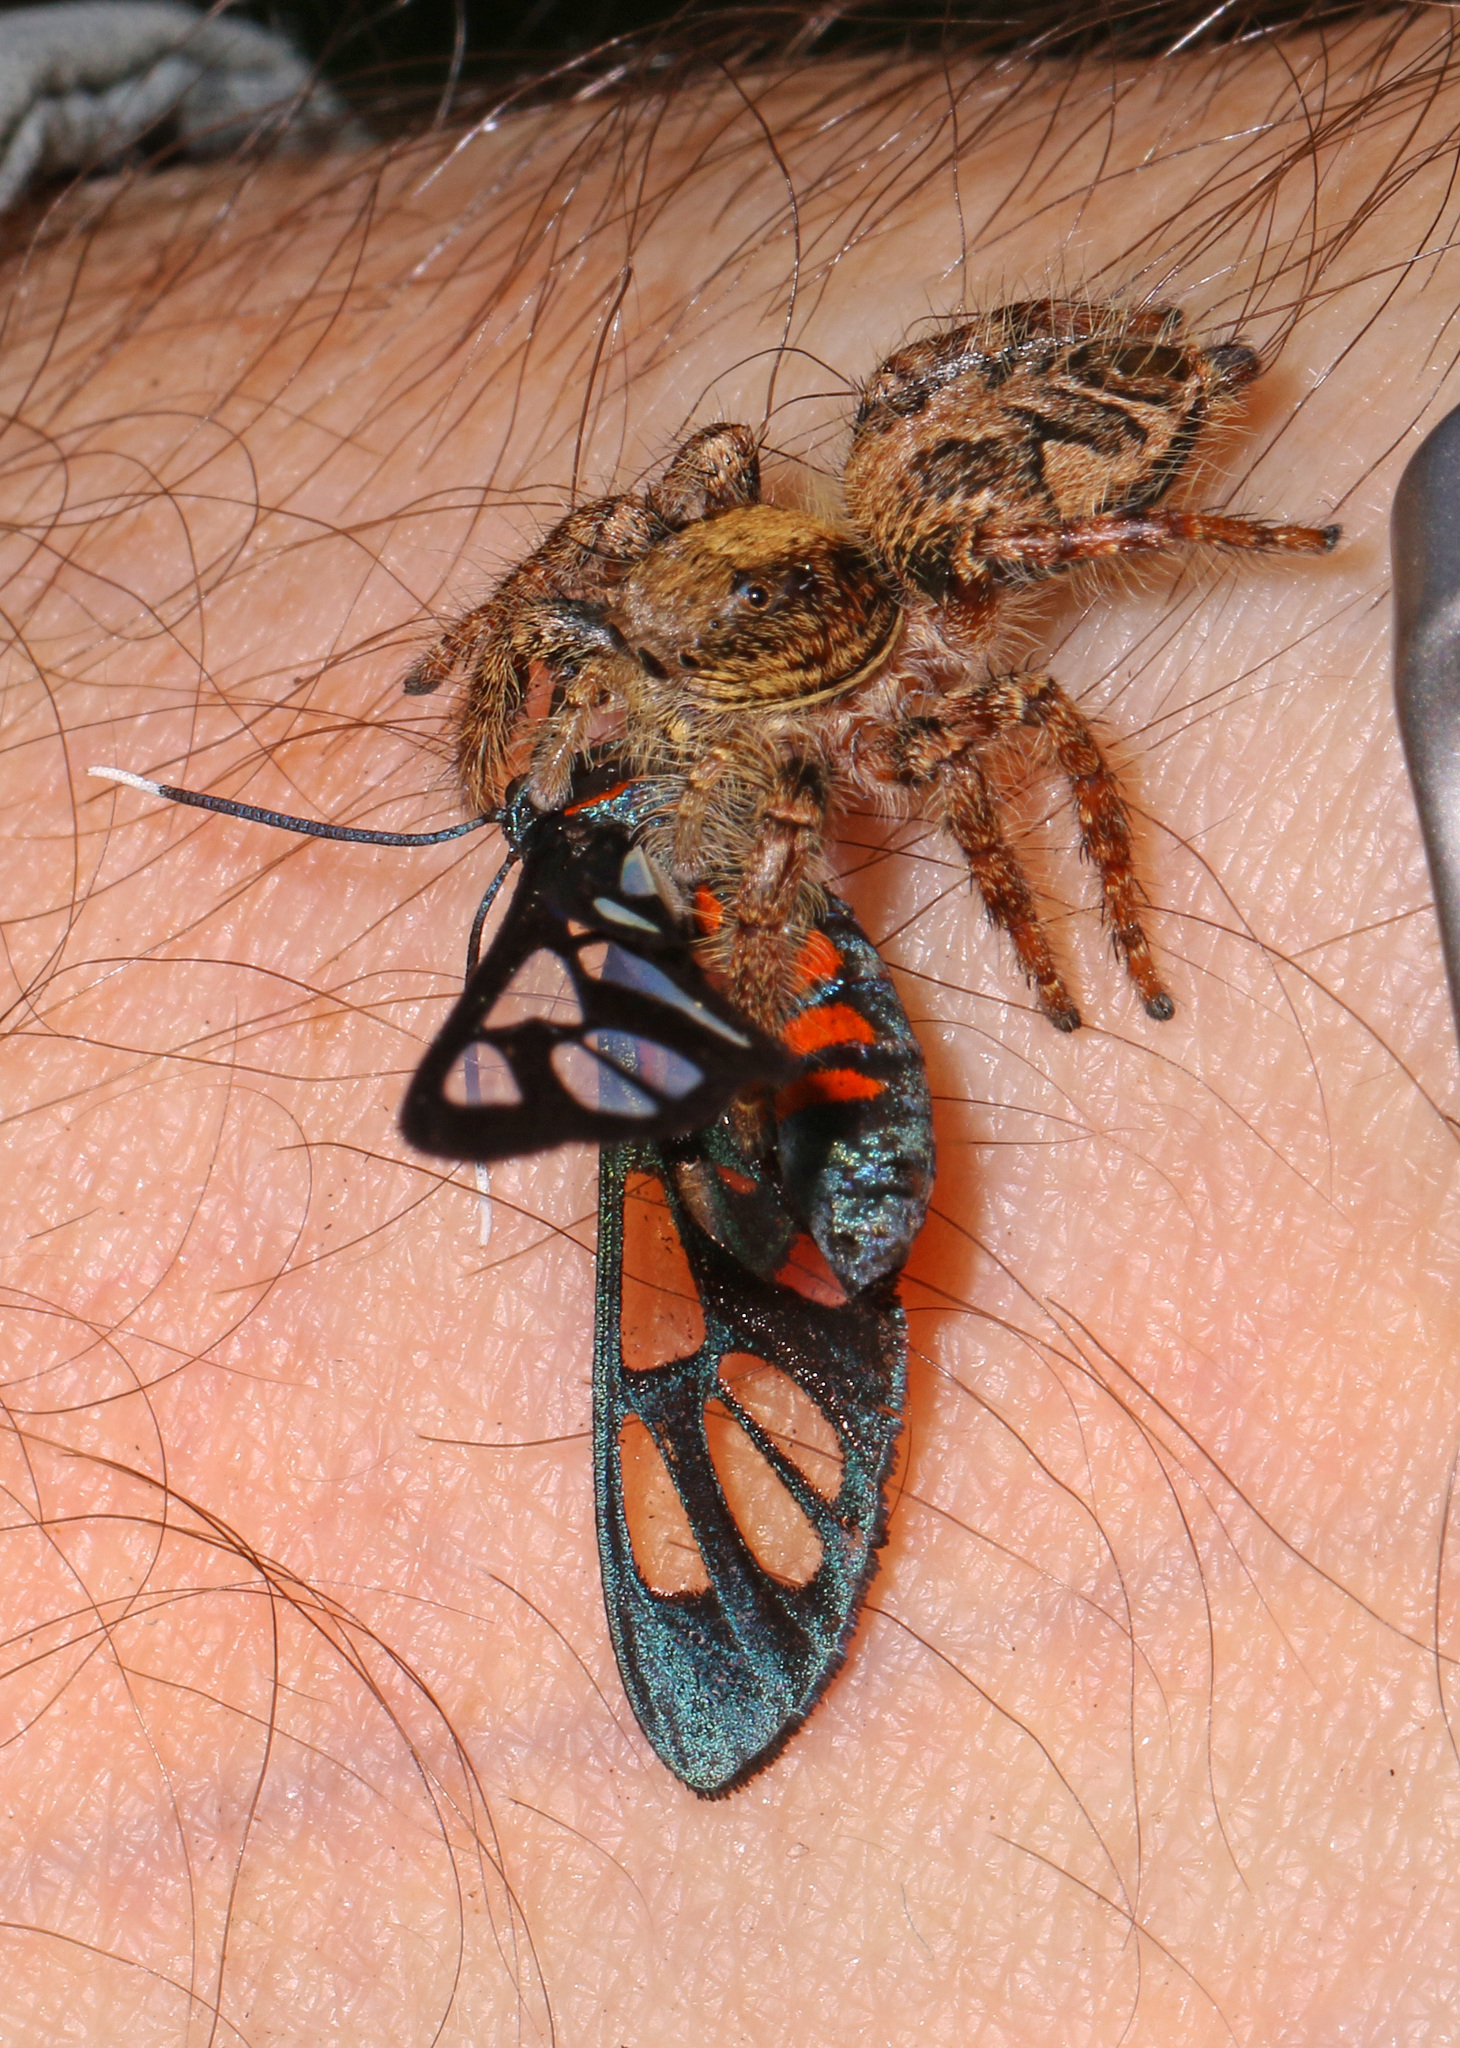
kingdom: Animalia
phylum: Arthropoda
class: Arachnida
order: Araneae
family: Salticidae
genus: Hyllus
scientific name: Hyllus treleaveni
